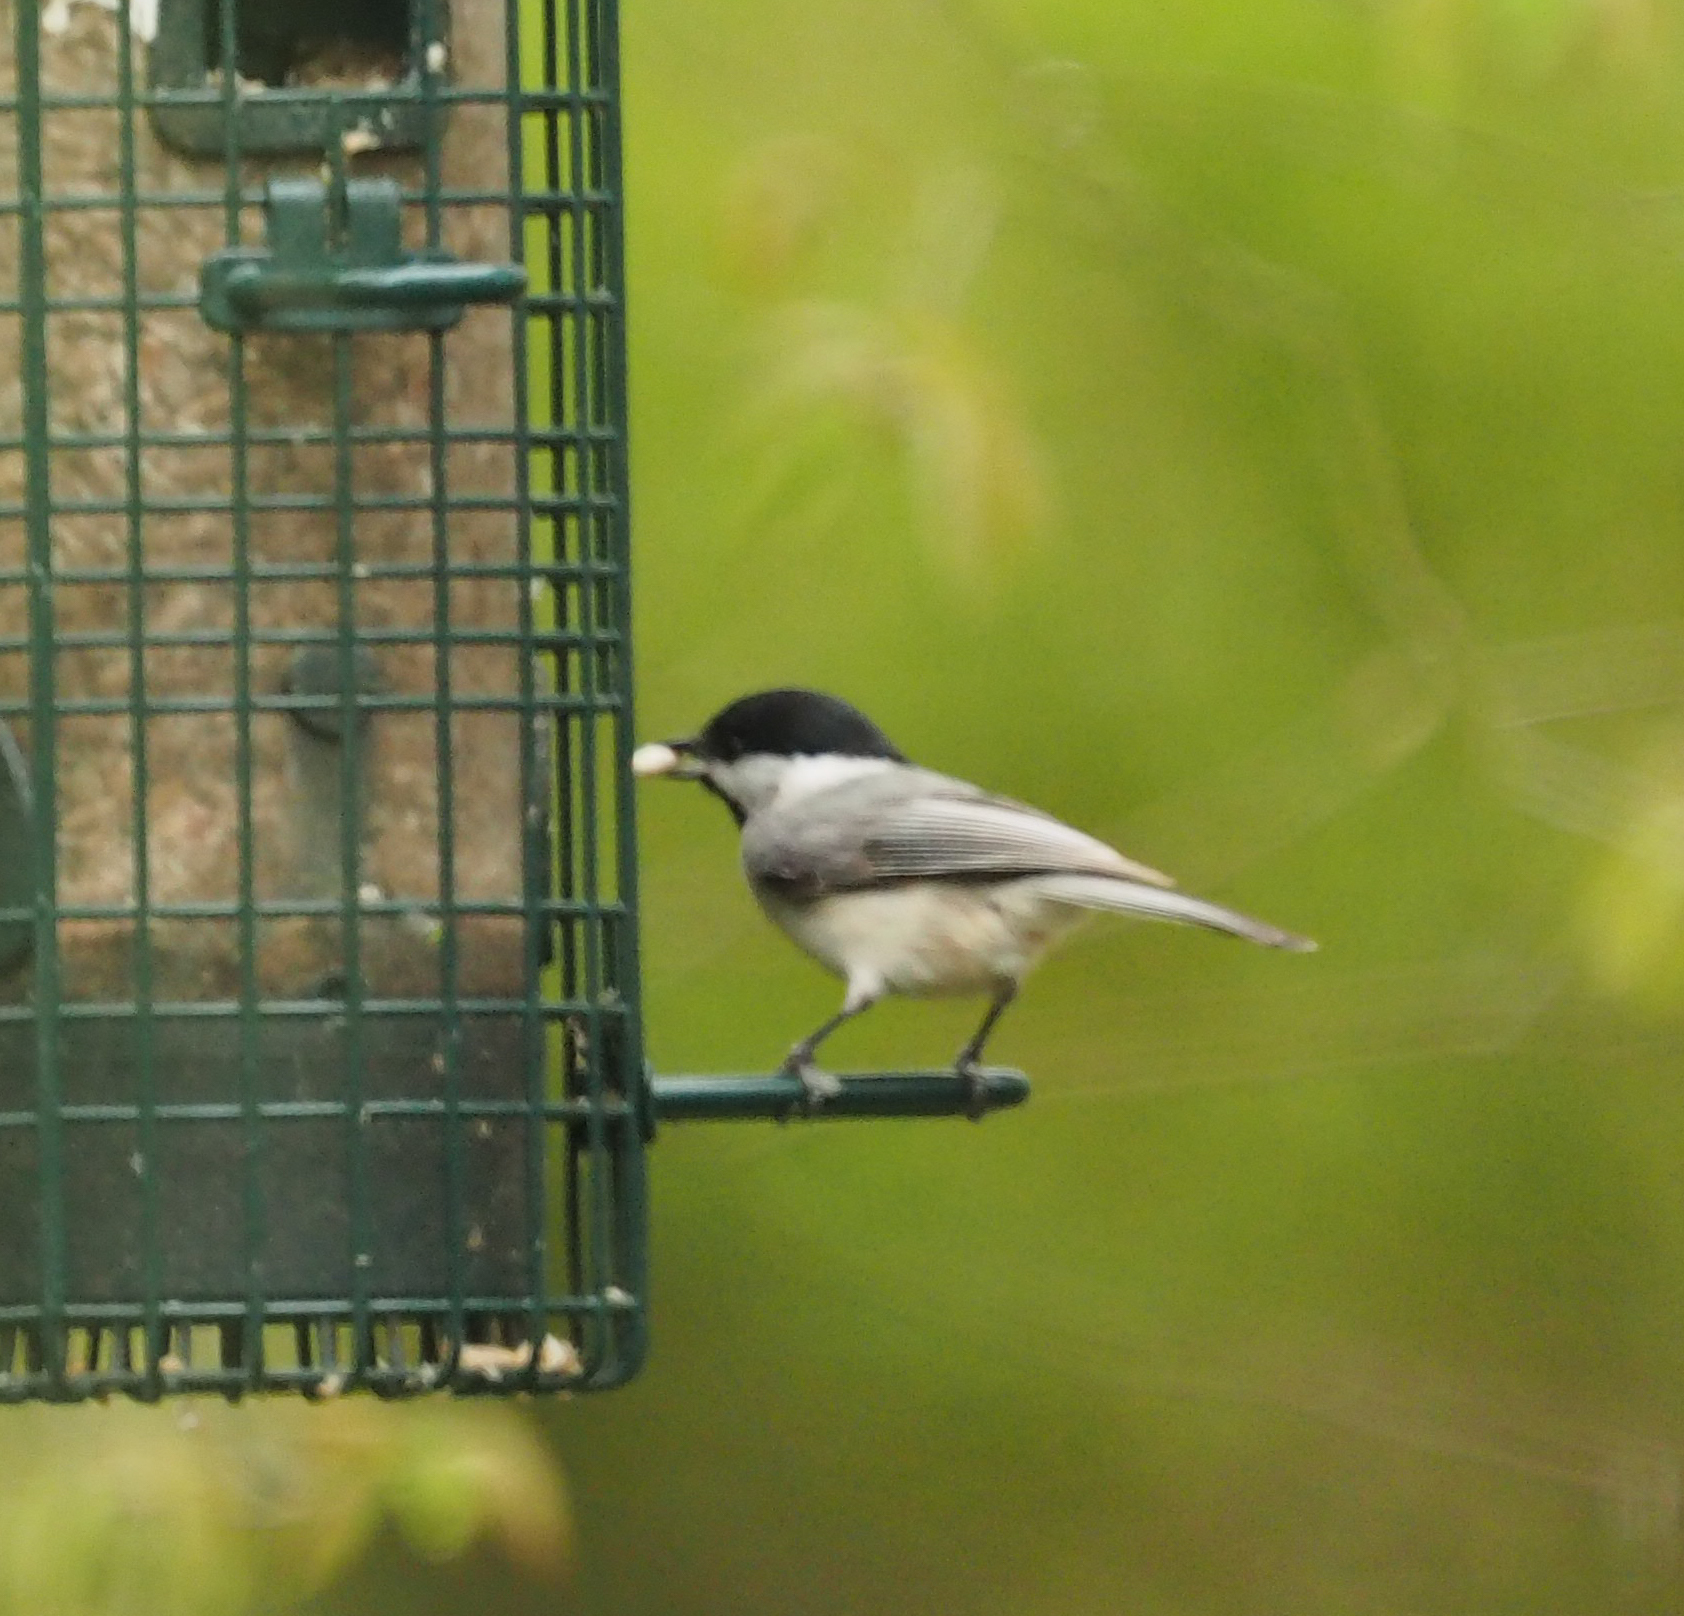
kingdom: Animalia
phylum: Chordata
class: Aves
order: Passeriformes
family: Paridae
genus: Poecile
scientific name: Poecile carolinensis
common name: Carolina chickadee
